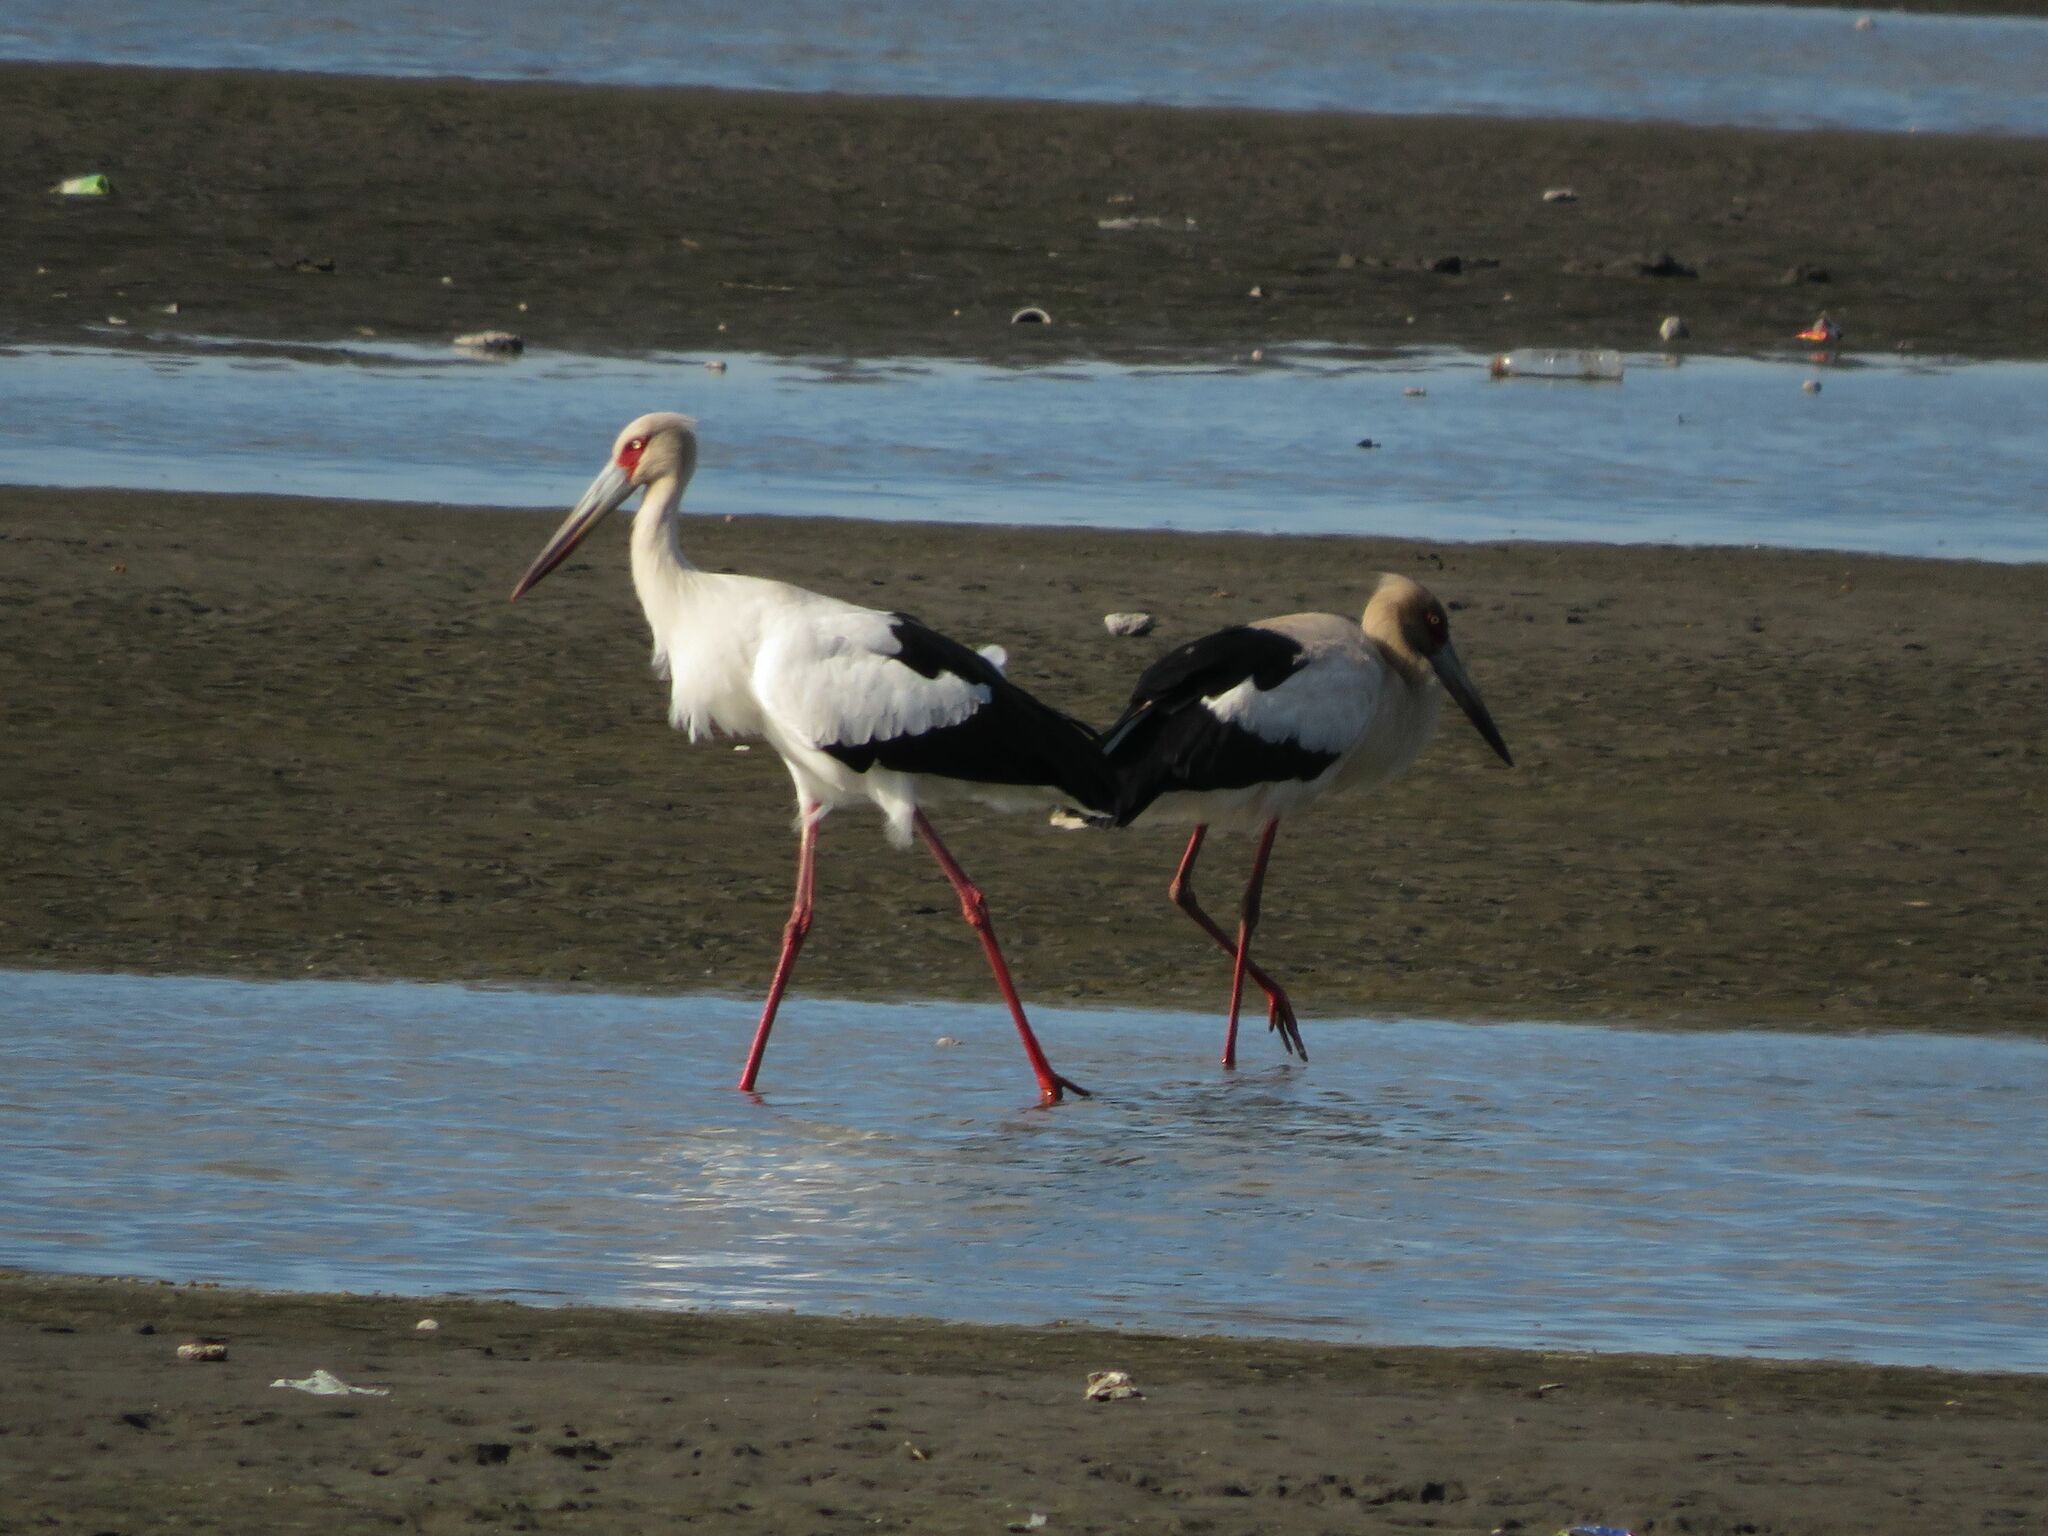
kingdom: Animalia
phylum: Chordata
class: Aves
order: Ciconiiformes
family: Ciconiidae
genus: Ciconia
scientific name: Ciconia maguari
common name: Maguari stork
